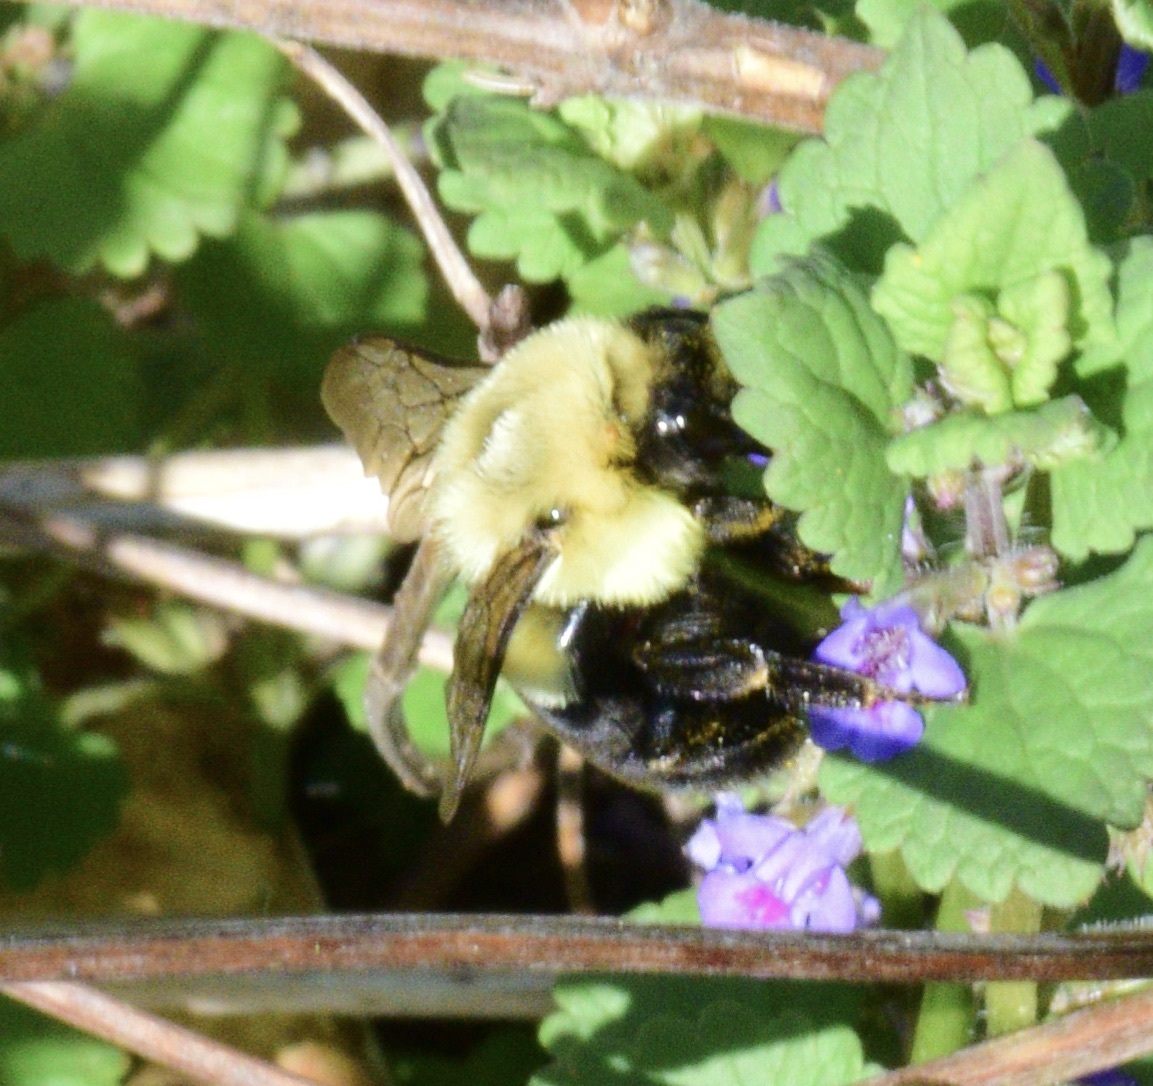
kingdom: Animalia
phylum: Arthropoda
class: Insecta
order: Hymenoptera
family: Apidae
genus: Bombus
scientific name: Bombus impatiens
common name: Common eastern bumble bee
